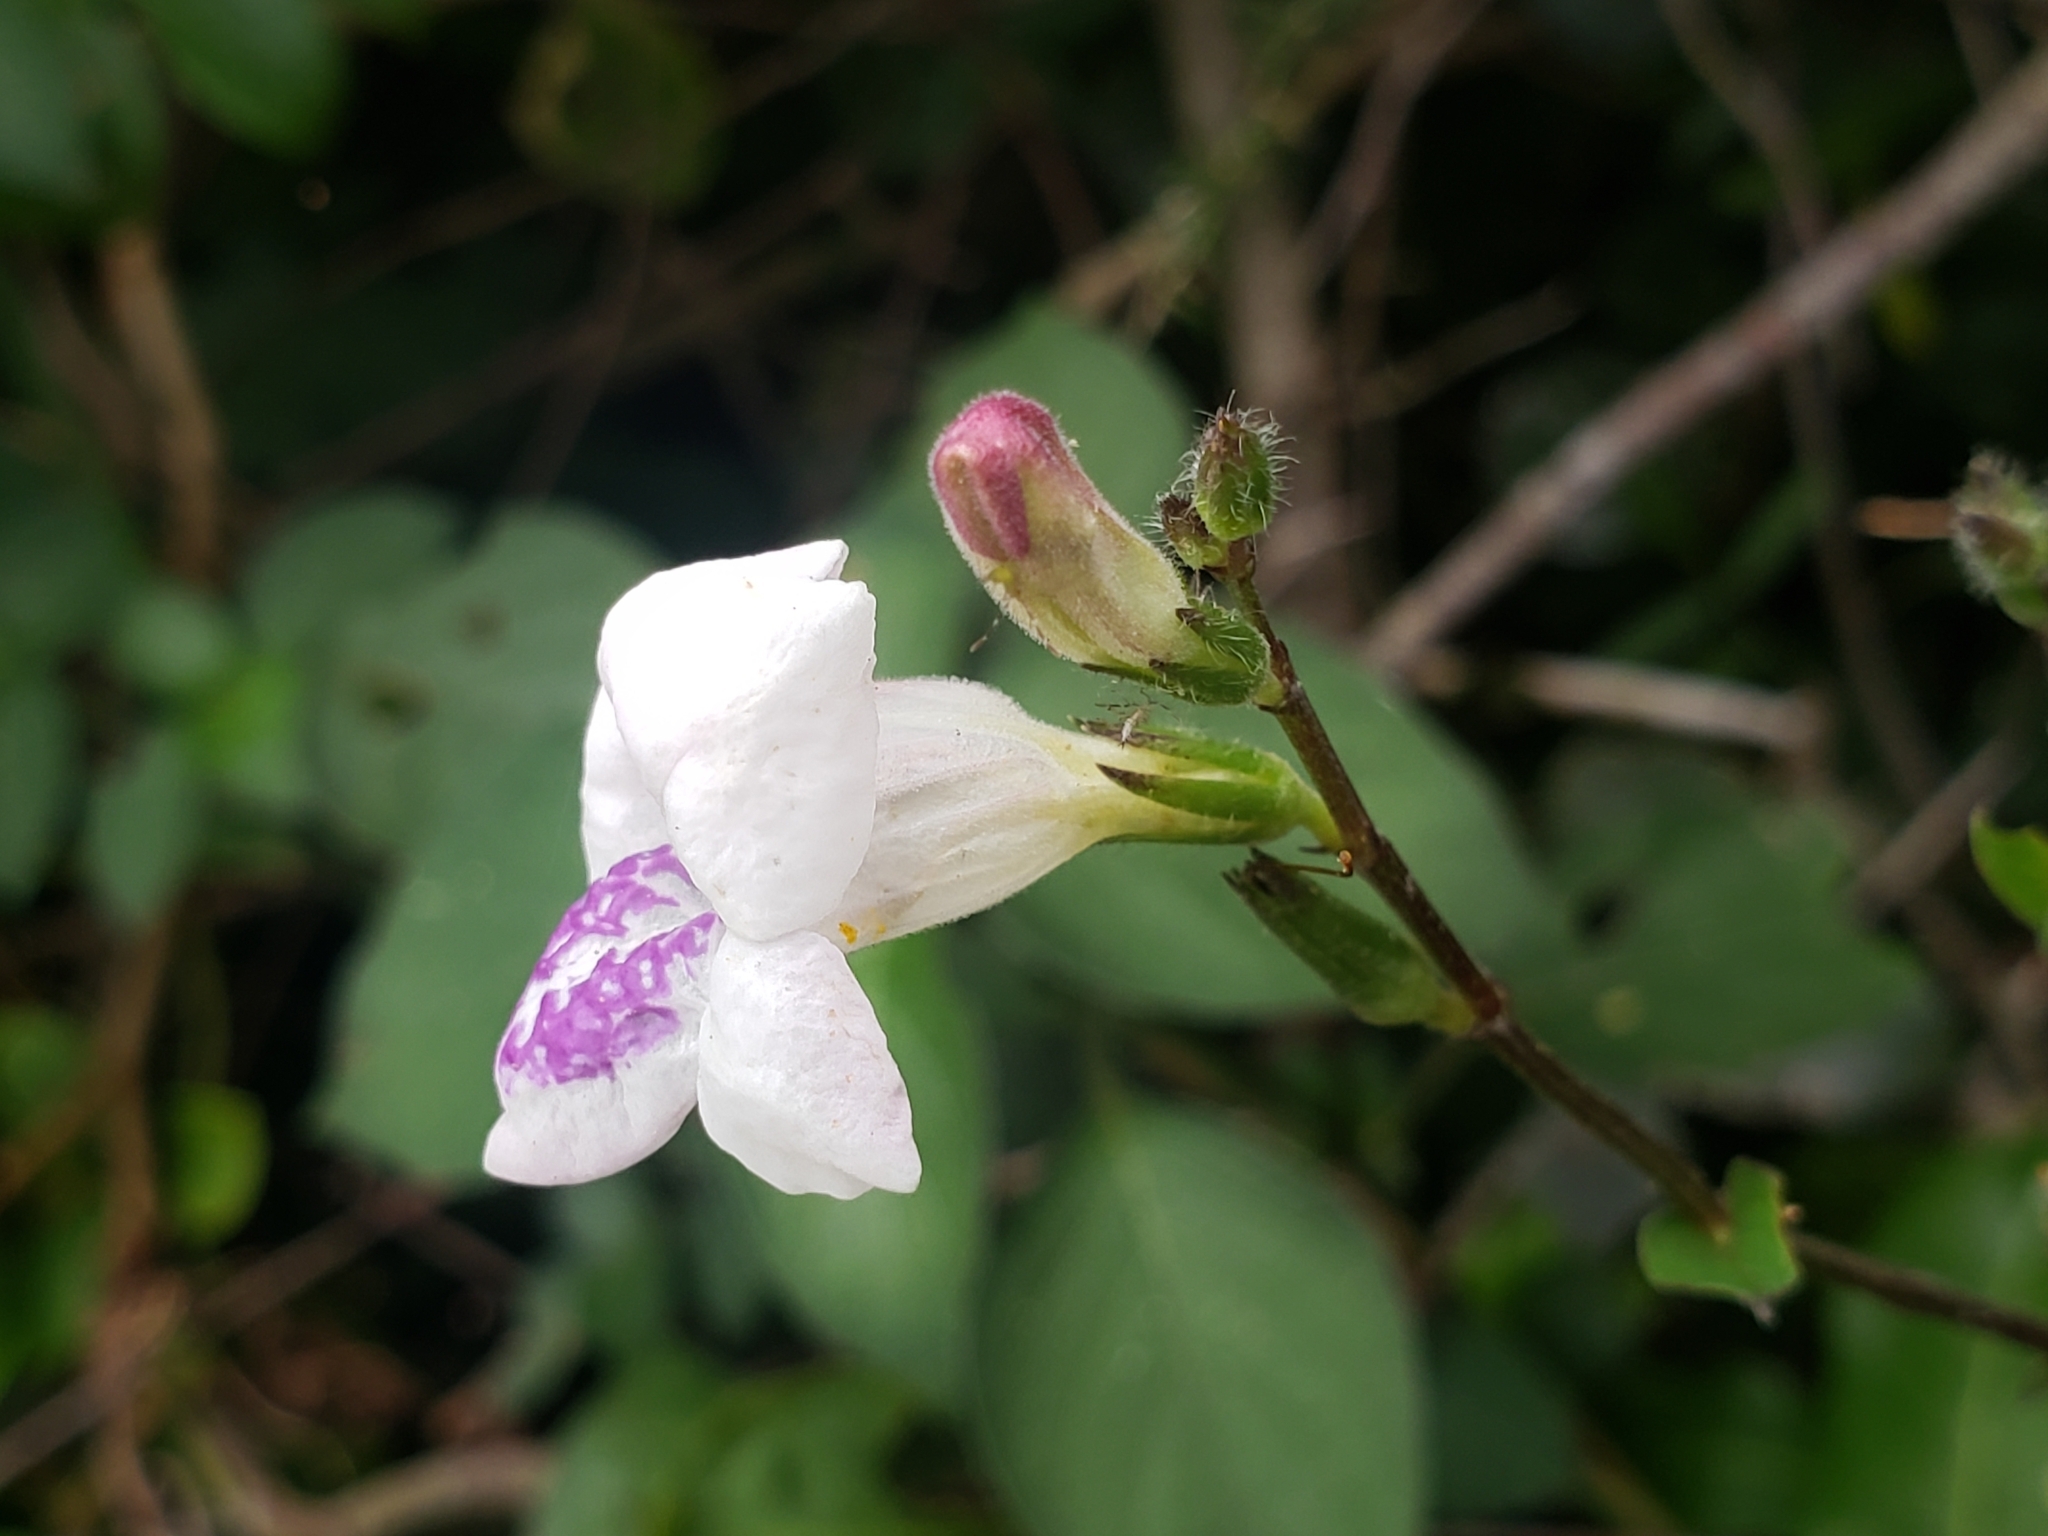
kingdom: Plantae
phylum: Tracheophyta
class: Magnoliopsida
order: Lamiales
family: Acanthaceae
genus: Asystasia
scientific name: Asystasia intrusa
